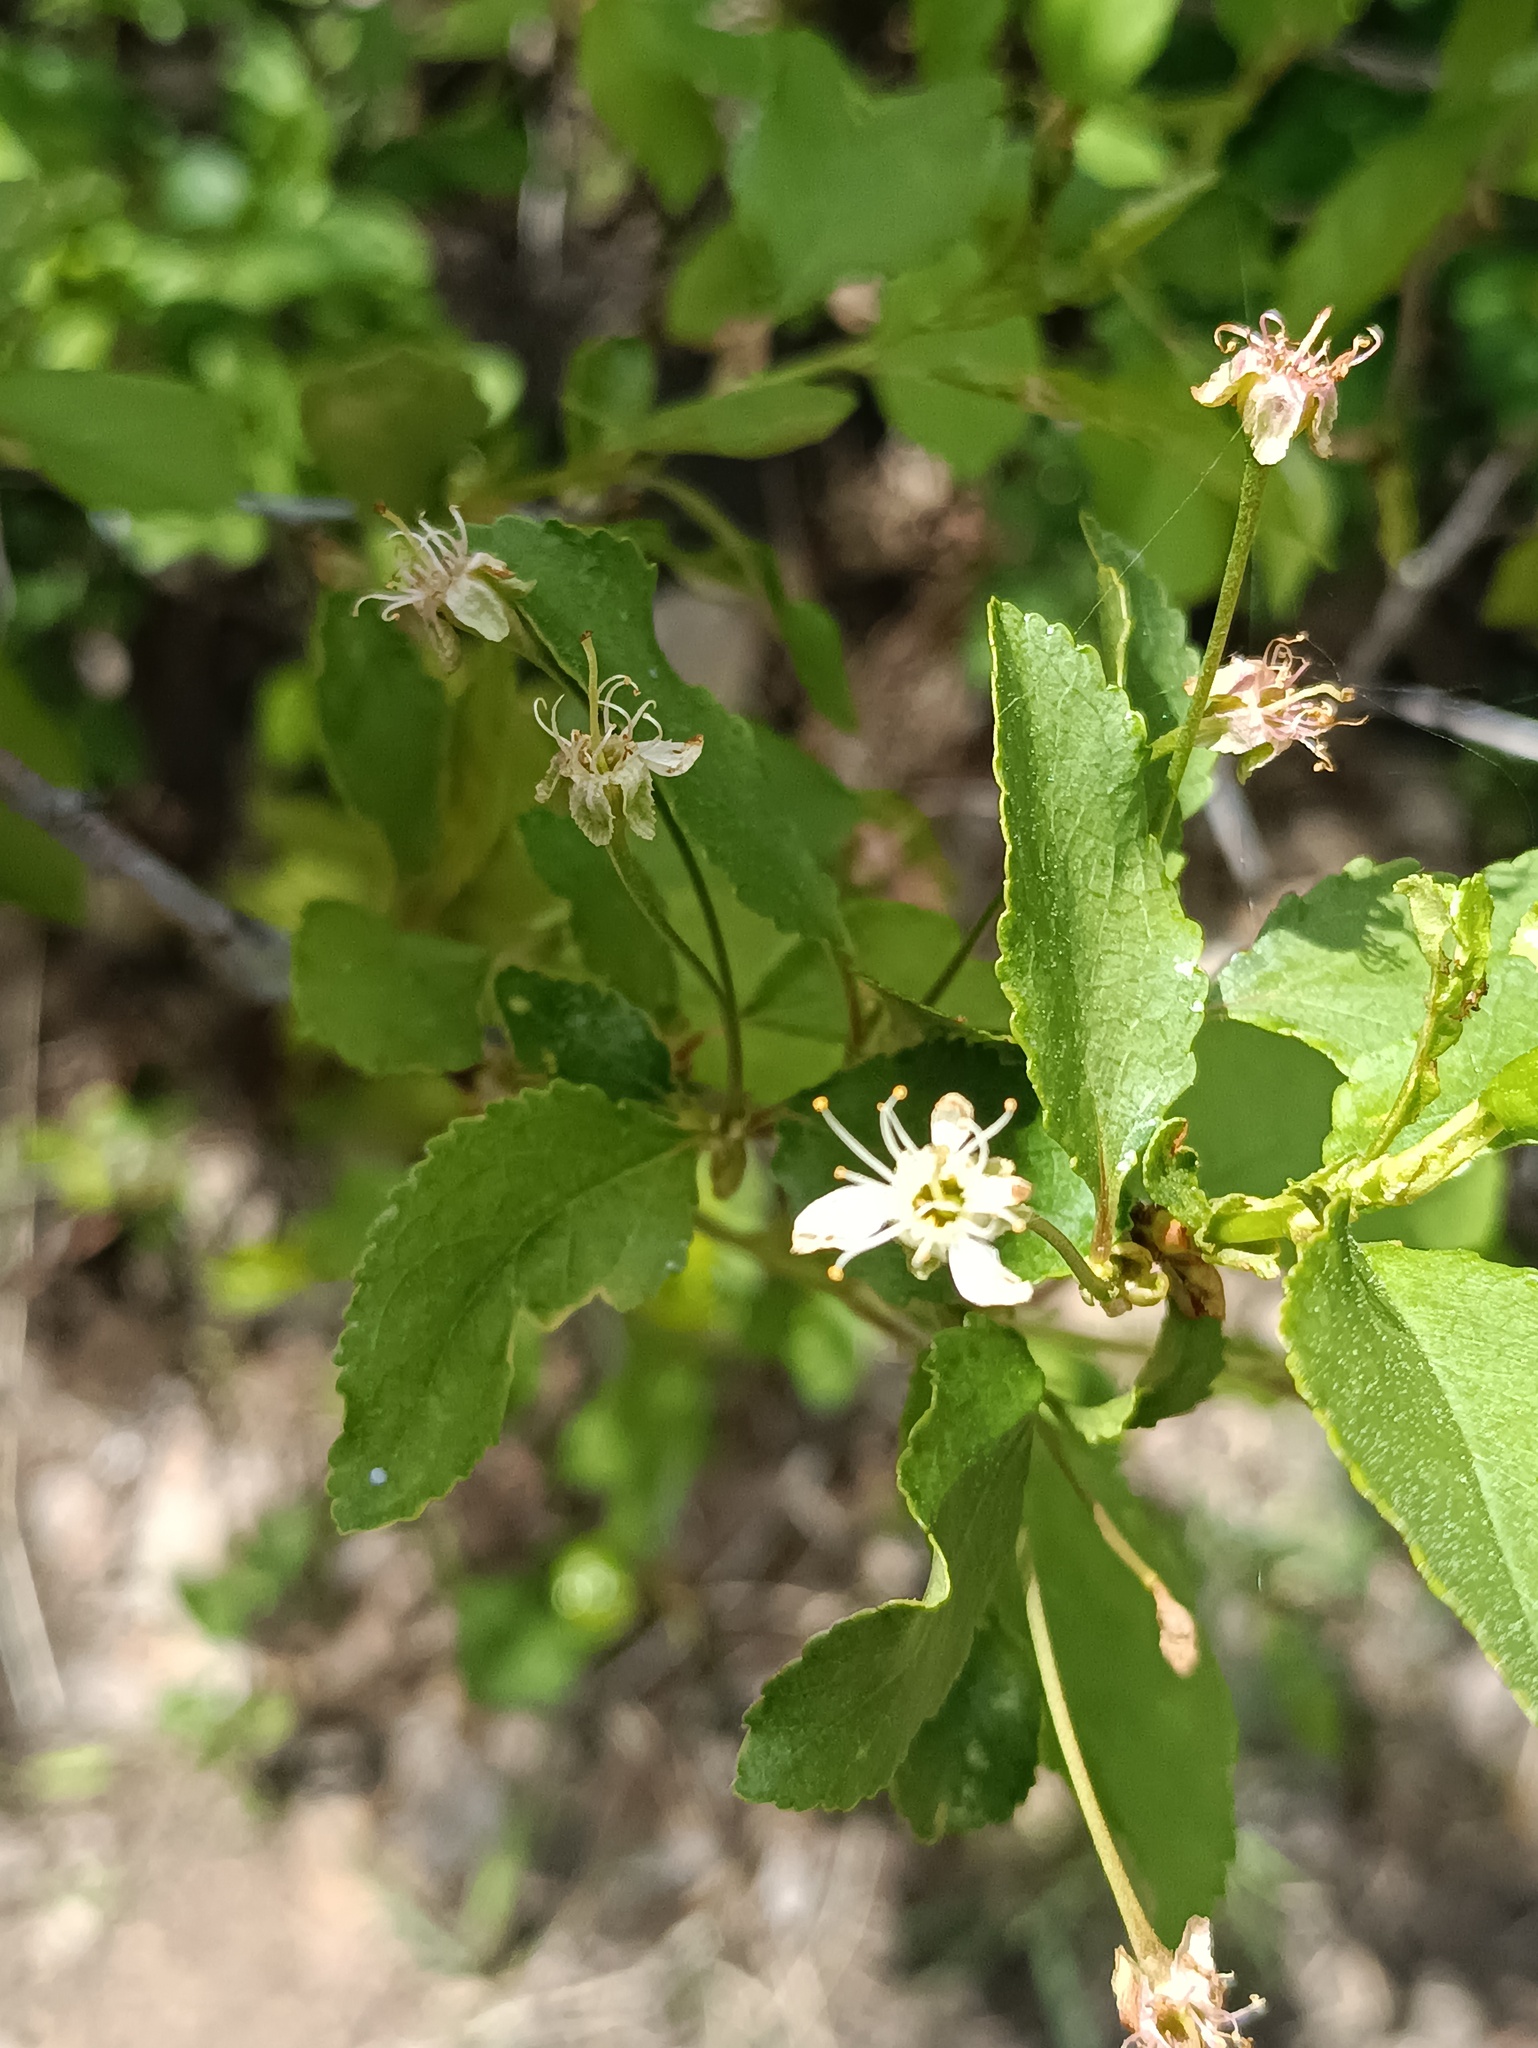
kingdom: Plantae
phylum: Tracheophyta
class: Magnoliopsida
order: Rosales
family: Rosaceae
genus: Prunus
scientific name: Prunus fruticosa
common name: European dwarf cherry
